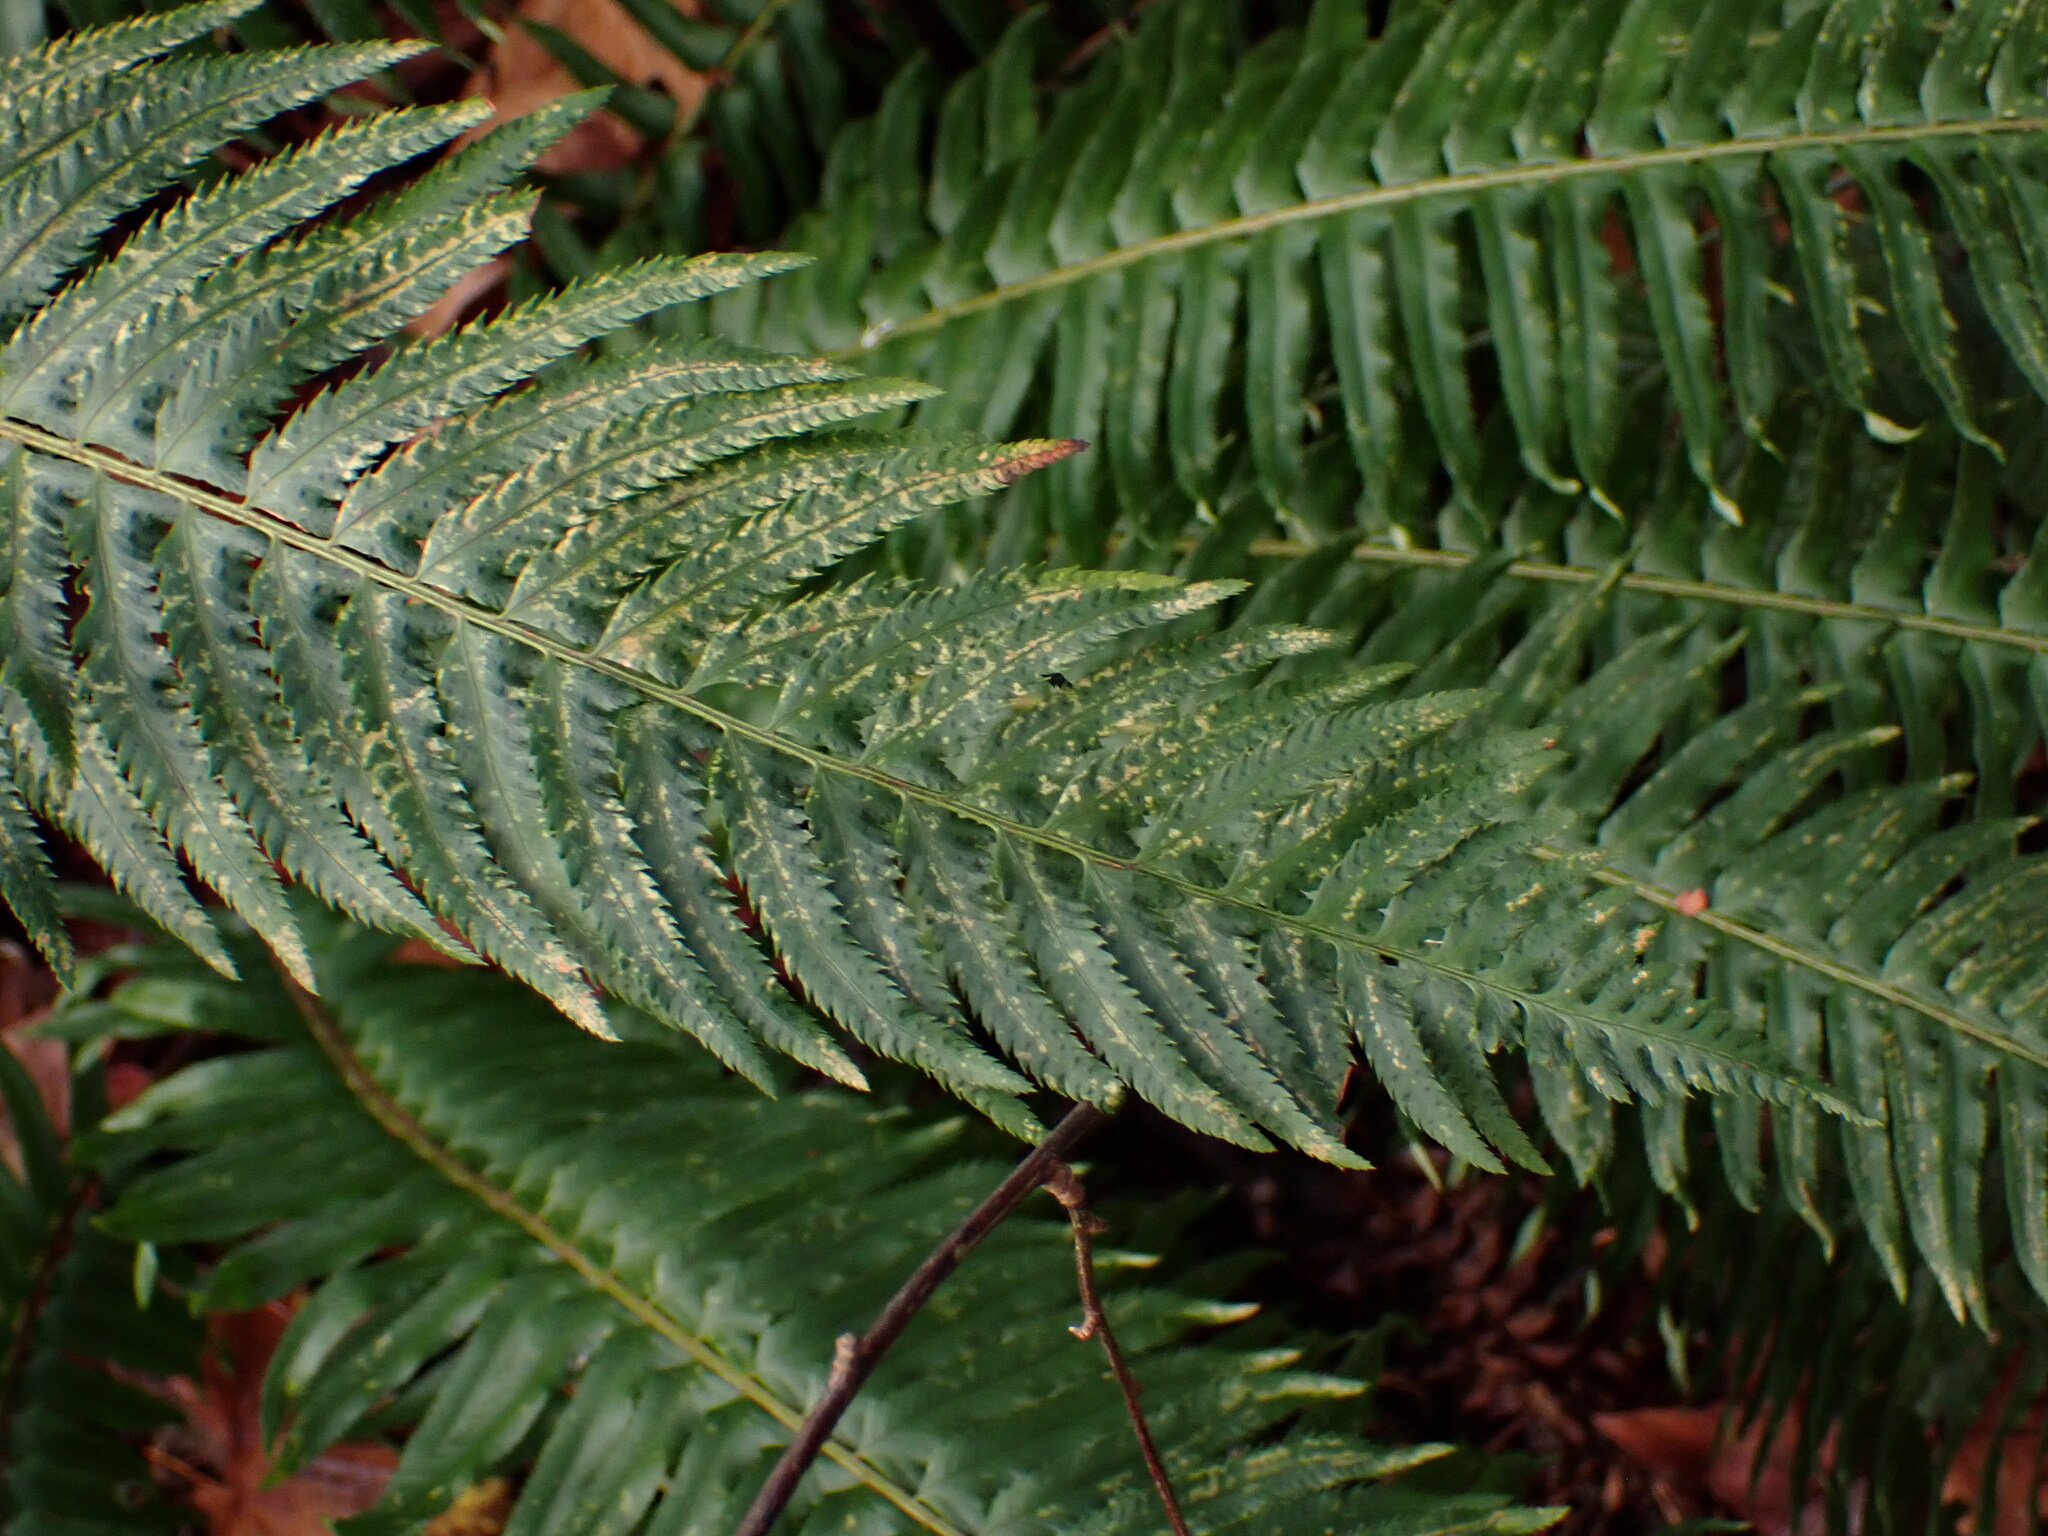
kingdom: Plantae
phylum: Tracheophyta
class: Polypodiopsida
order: Polypodiales
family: Dryopteridaceae
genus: Polystichum
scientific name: Polystichum munitum
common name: Western sword-fern
